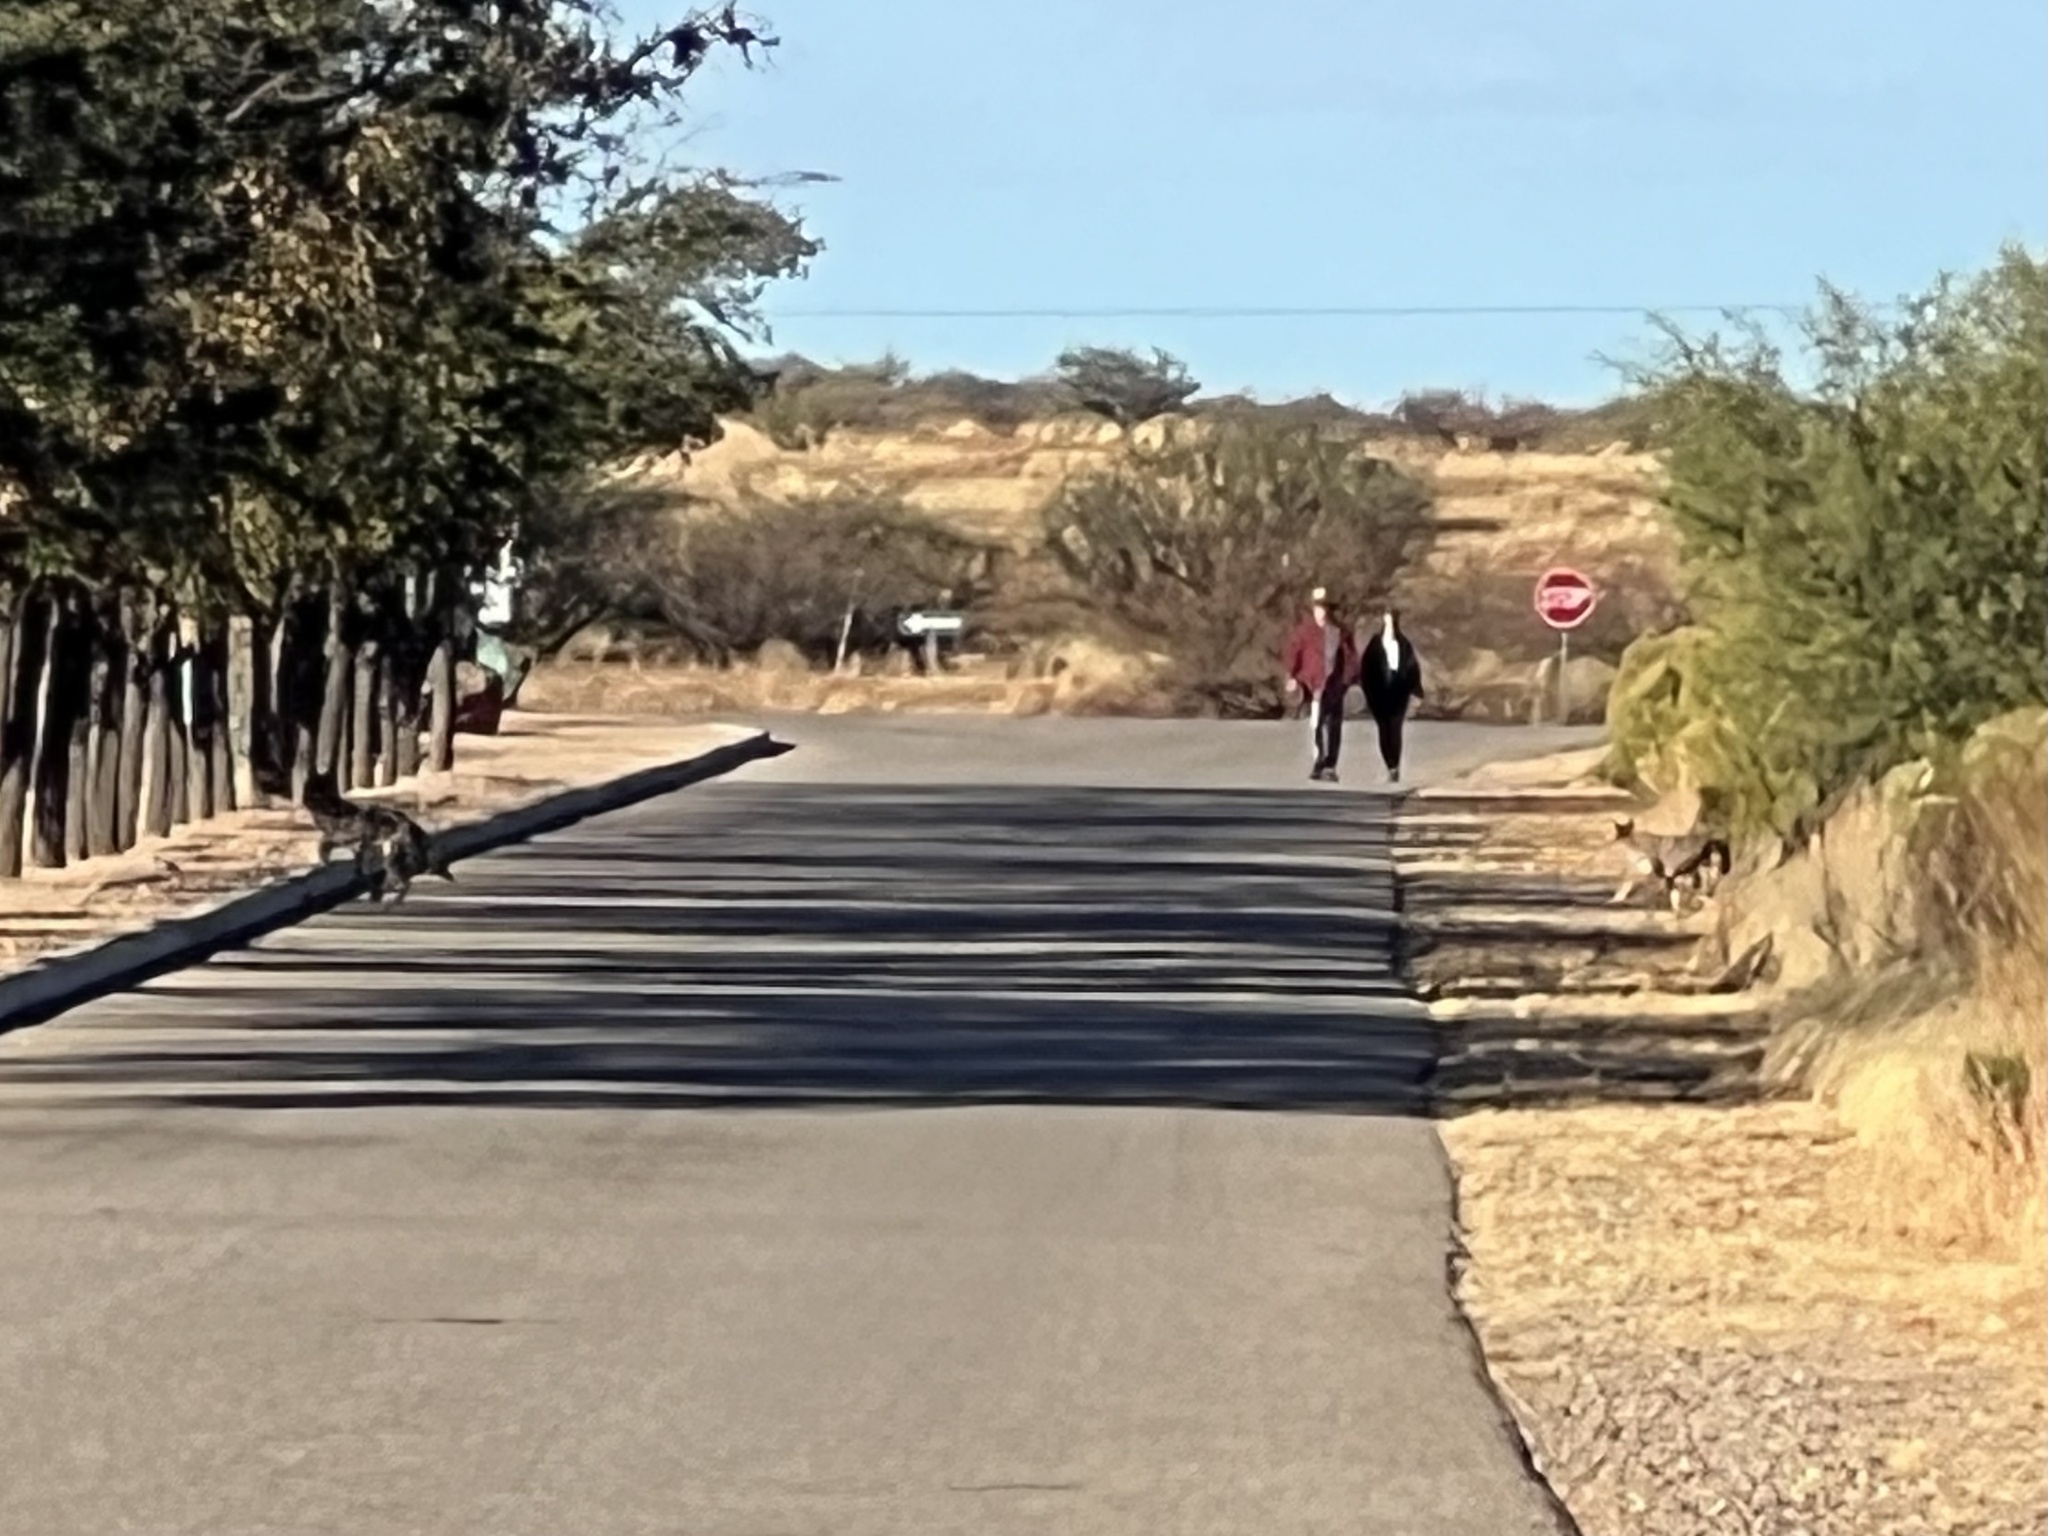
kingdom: Animalia
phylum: Chordata
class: Mammalia
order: Carnivora
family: Canidae
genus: Canis
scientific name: Canis latrans
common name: Coyote
